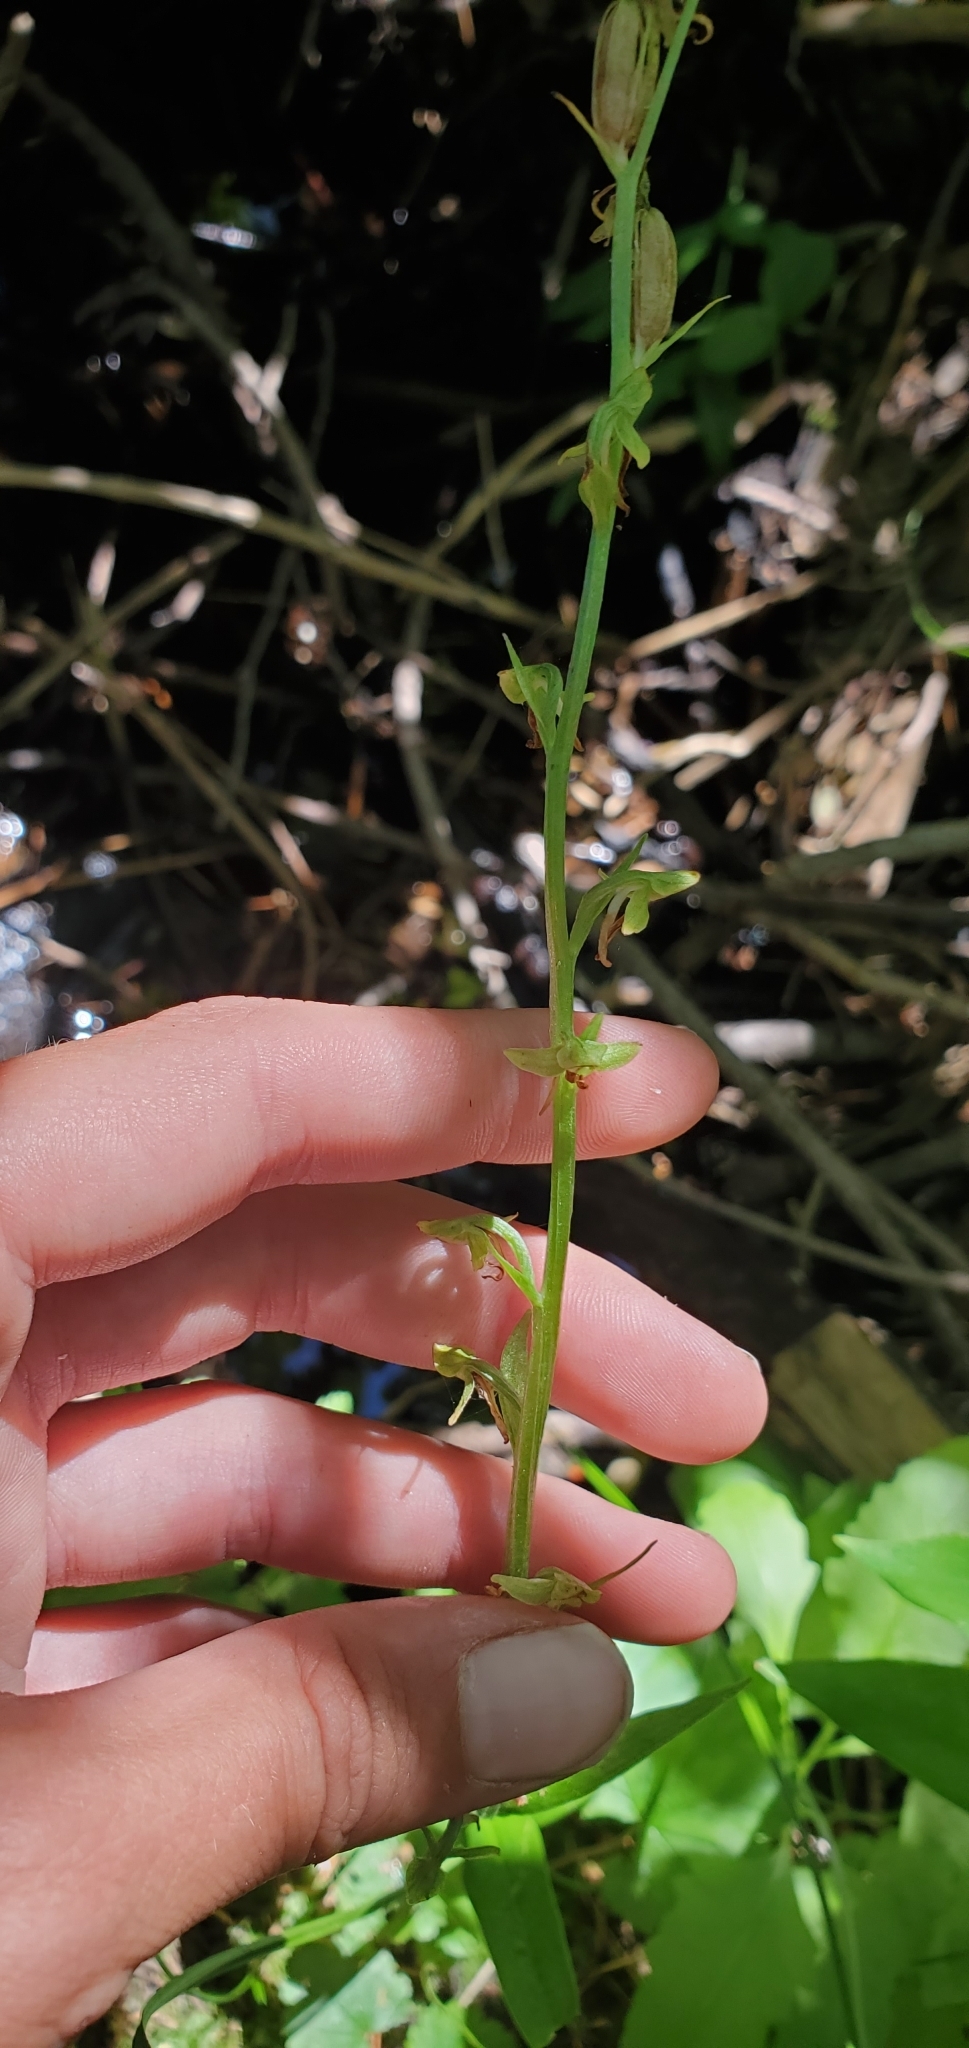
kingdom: Plantae
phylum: Tracheophyta
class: Liliopsida
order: Asparagales
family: Orchidaceae
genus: Platanthera
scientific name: Platanthera sparsiflora
